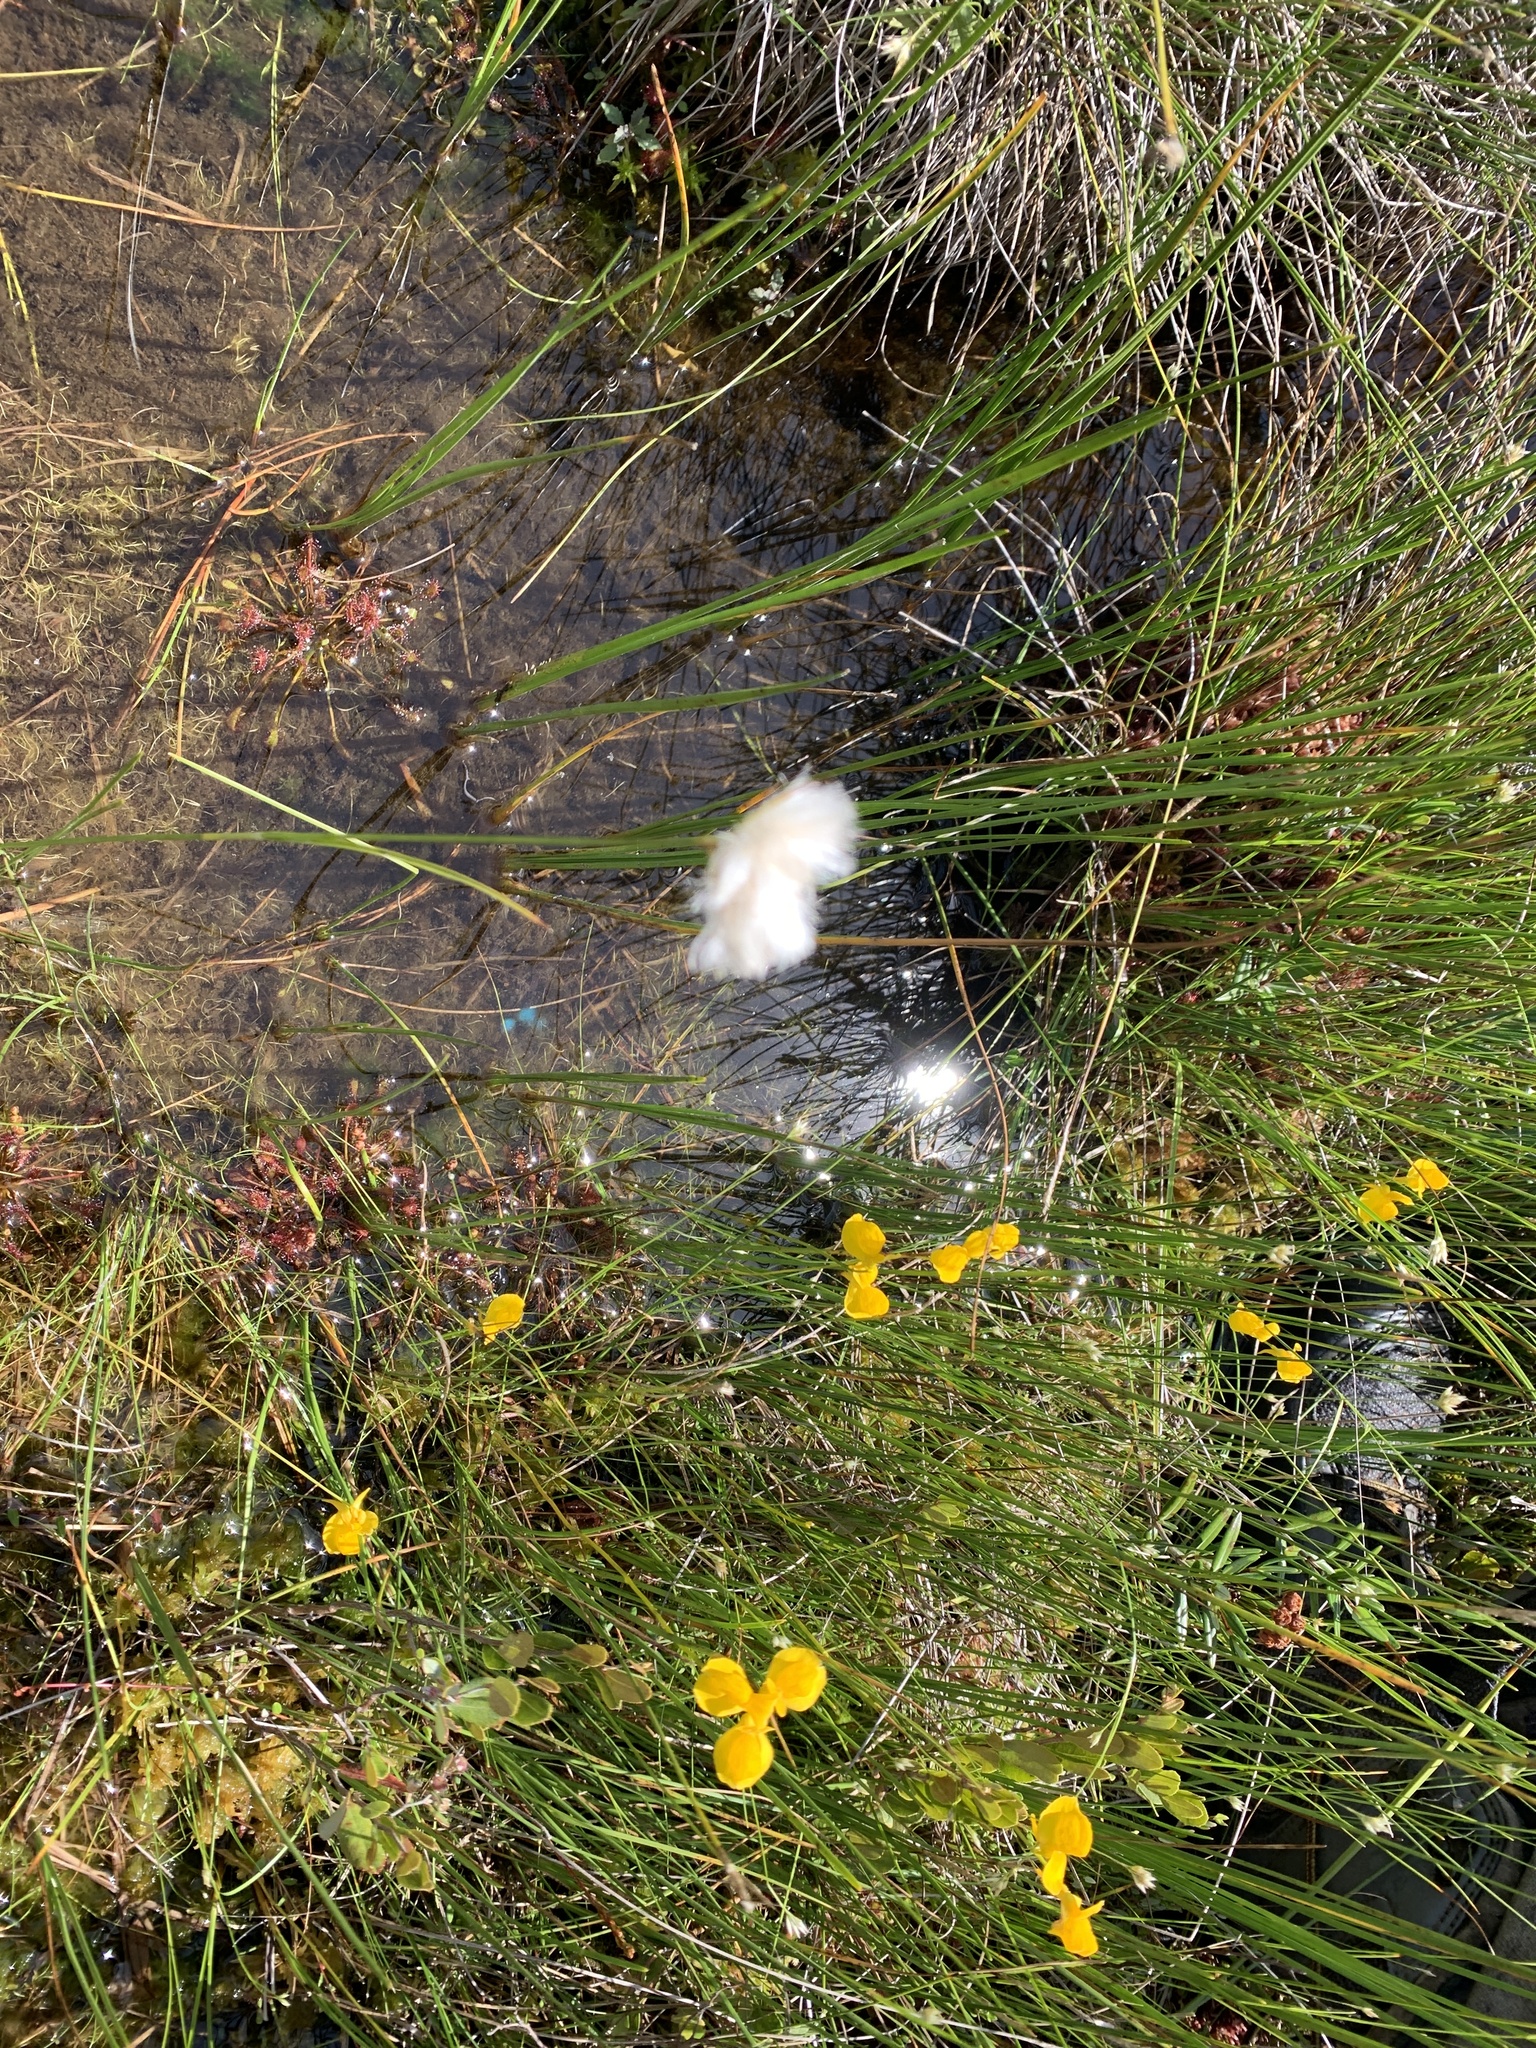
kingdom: Plantae
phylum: Tracheophyta
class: Liliopsida
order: Poales
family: Cyperaceae
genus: Eriophorum
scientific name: Eriophorum virginicum
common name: Tawny cottongrass
